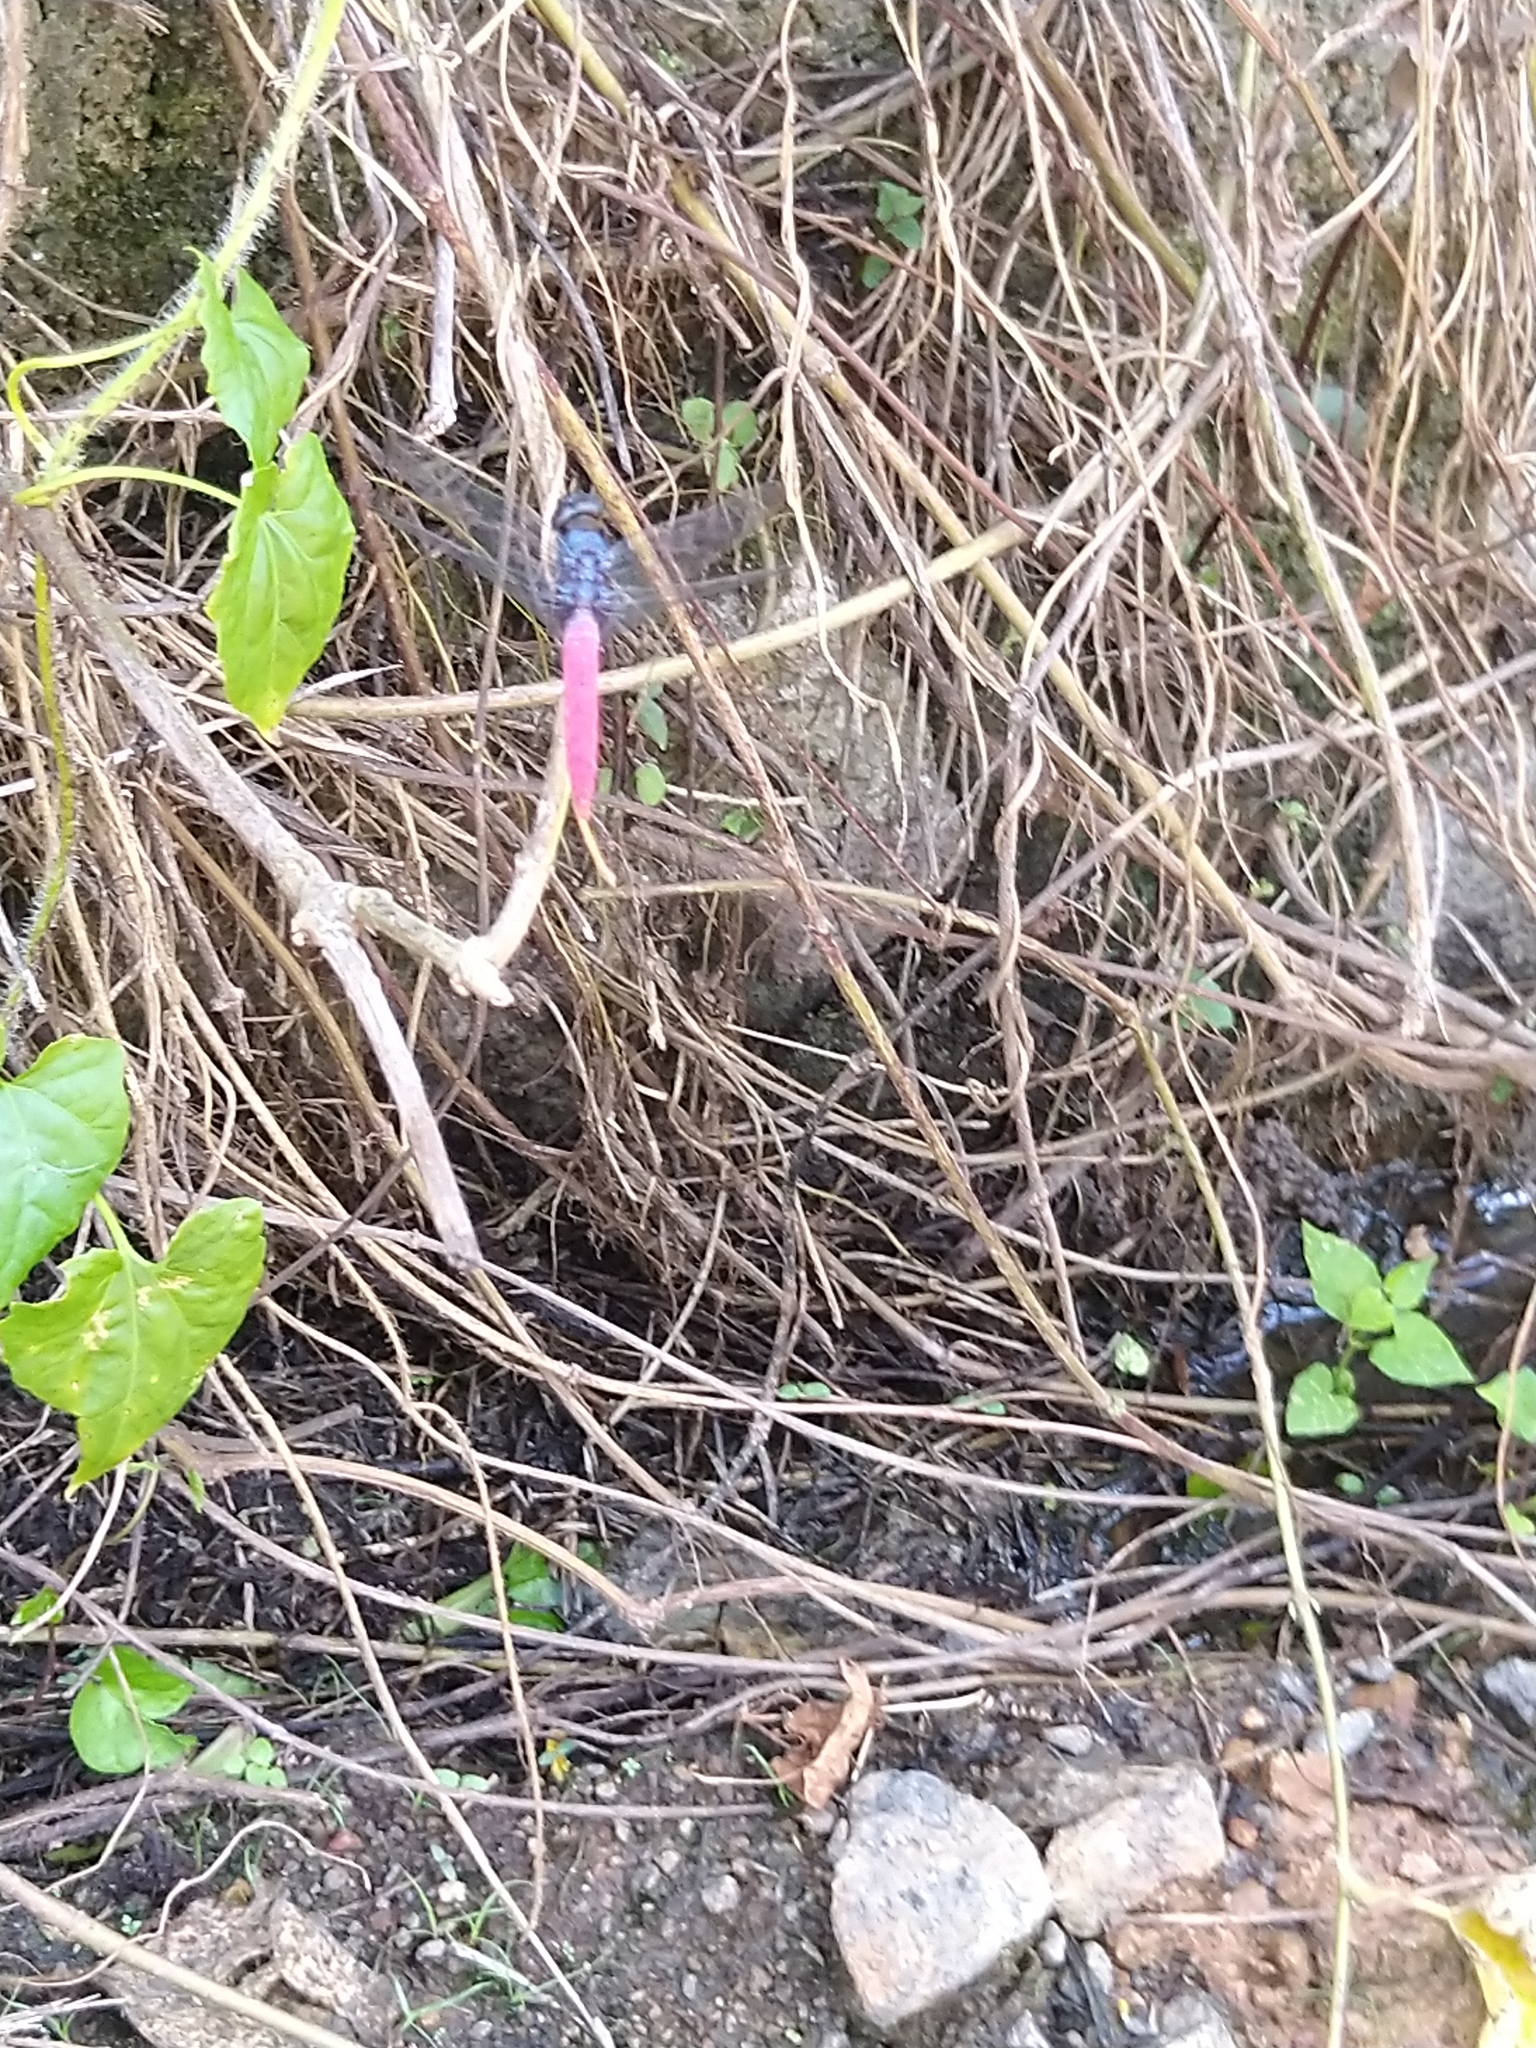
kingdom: Animalia
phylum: Arthropoda
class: Insecta
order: Odonata
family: Libellulidae
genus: Orthetrum
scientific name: Orthetrum pruinosum
